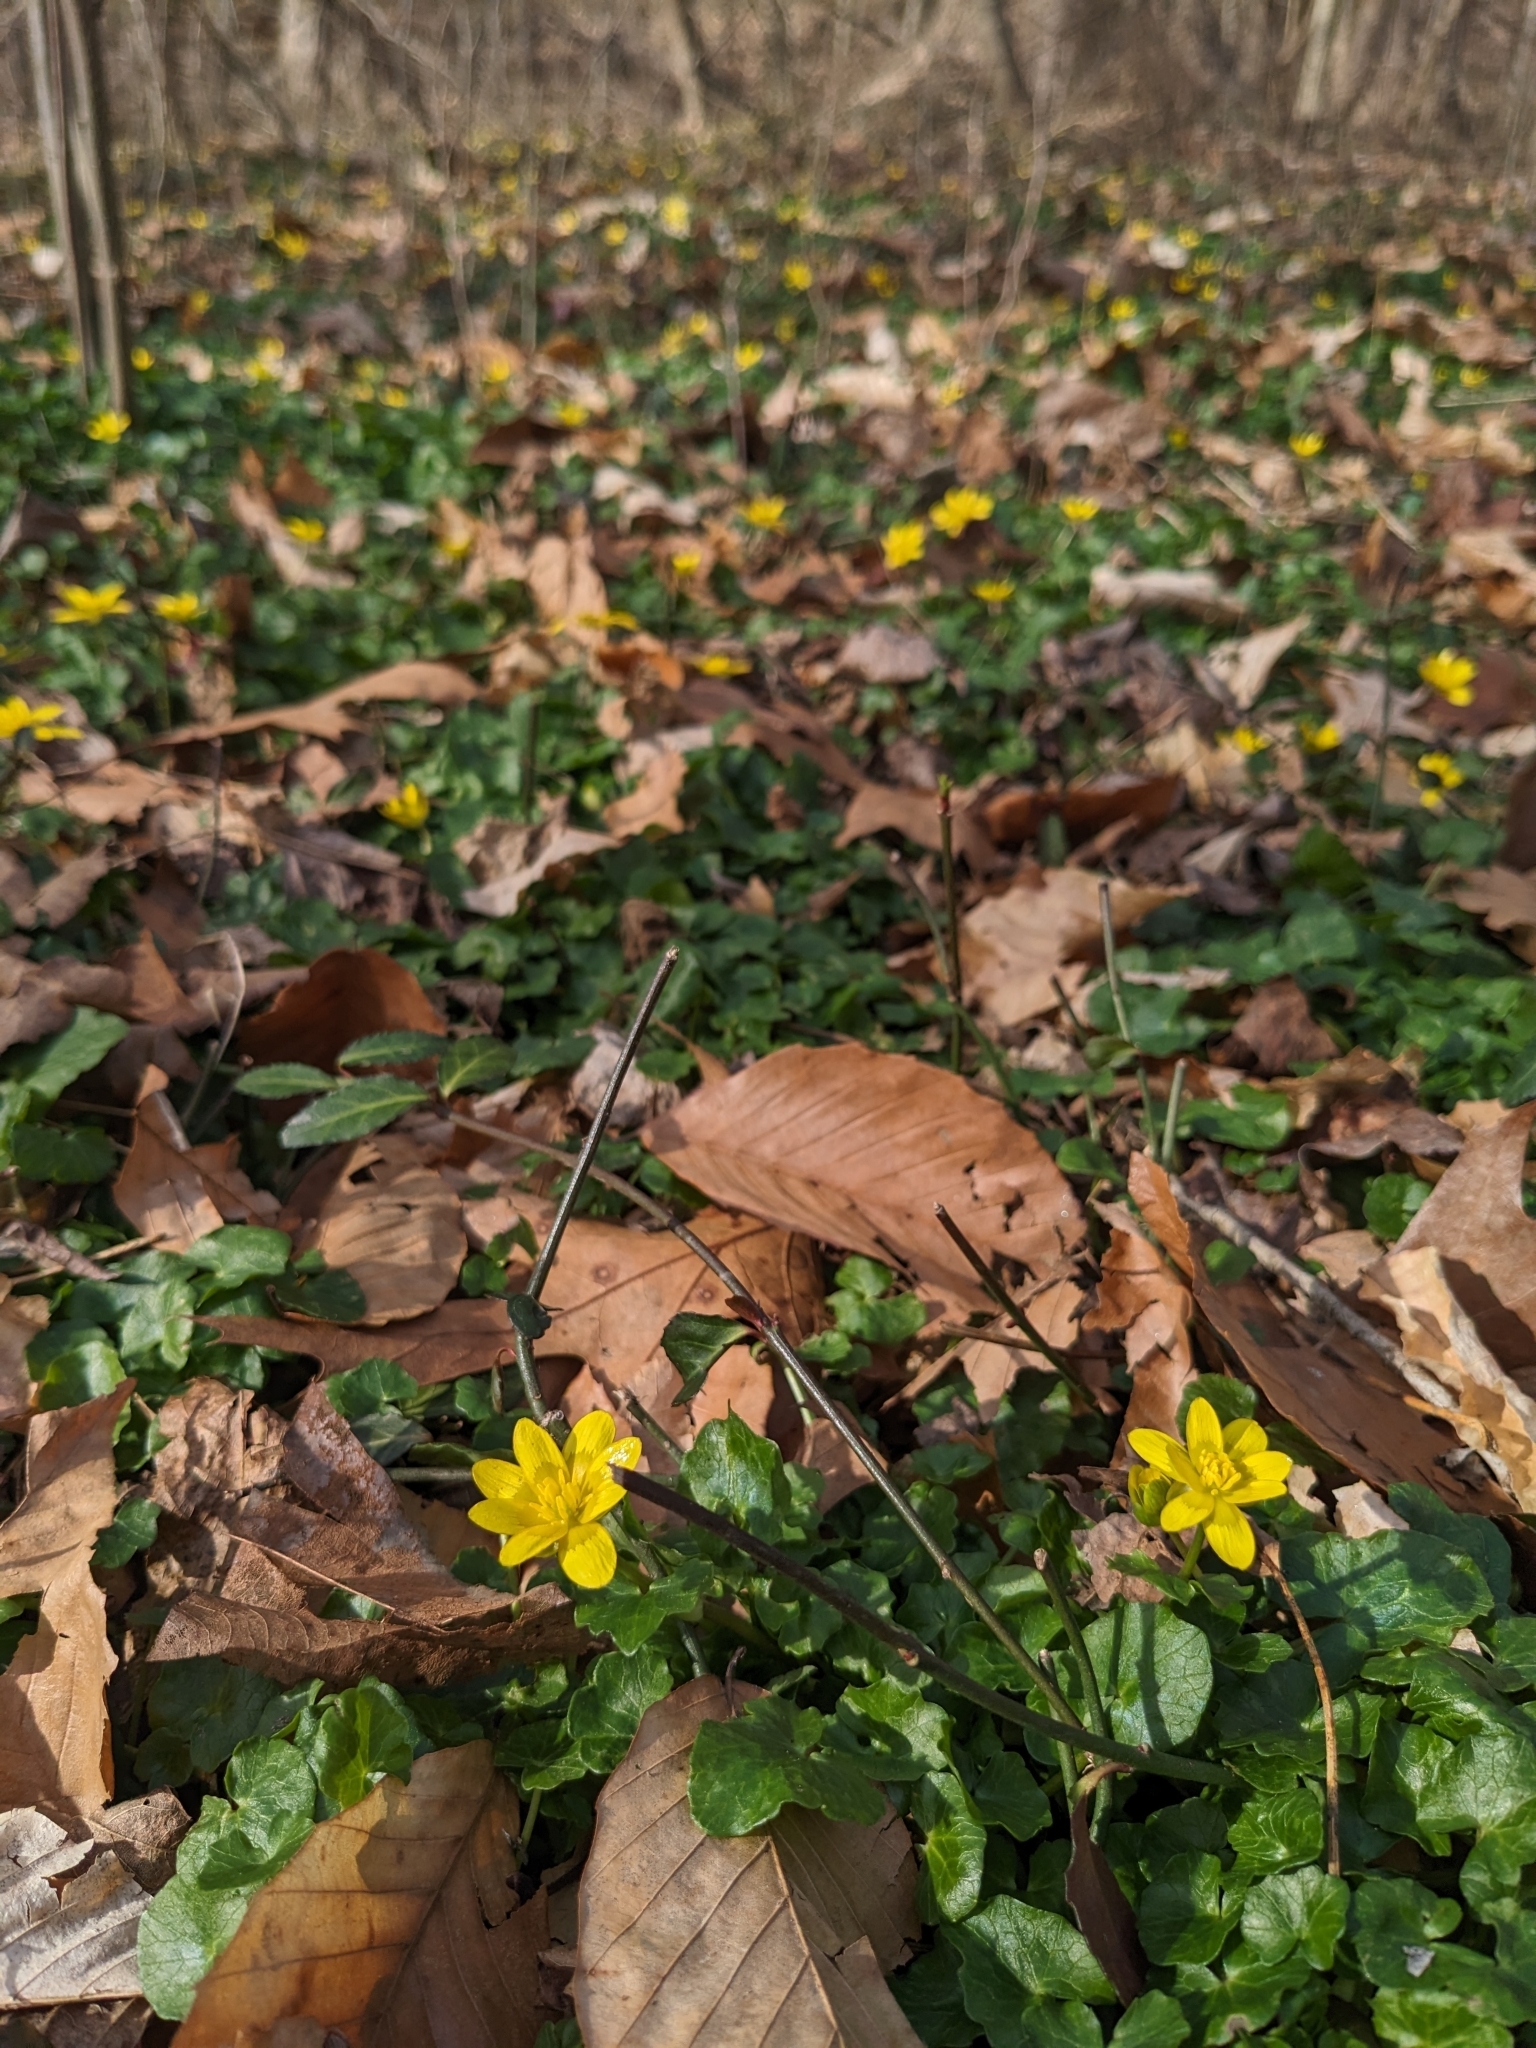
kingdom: Plantae
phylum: Tracheophyta
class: Magnoliopsida
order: Ranunculales
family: Ranunculaceae
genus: Ficaria
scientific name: Ficaria verna
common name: Lesser celandine
